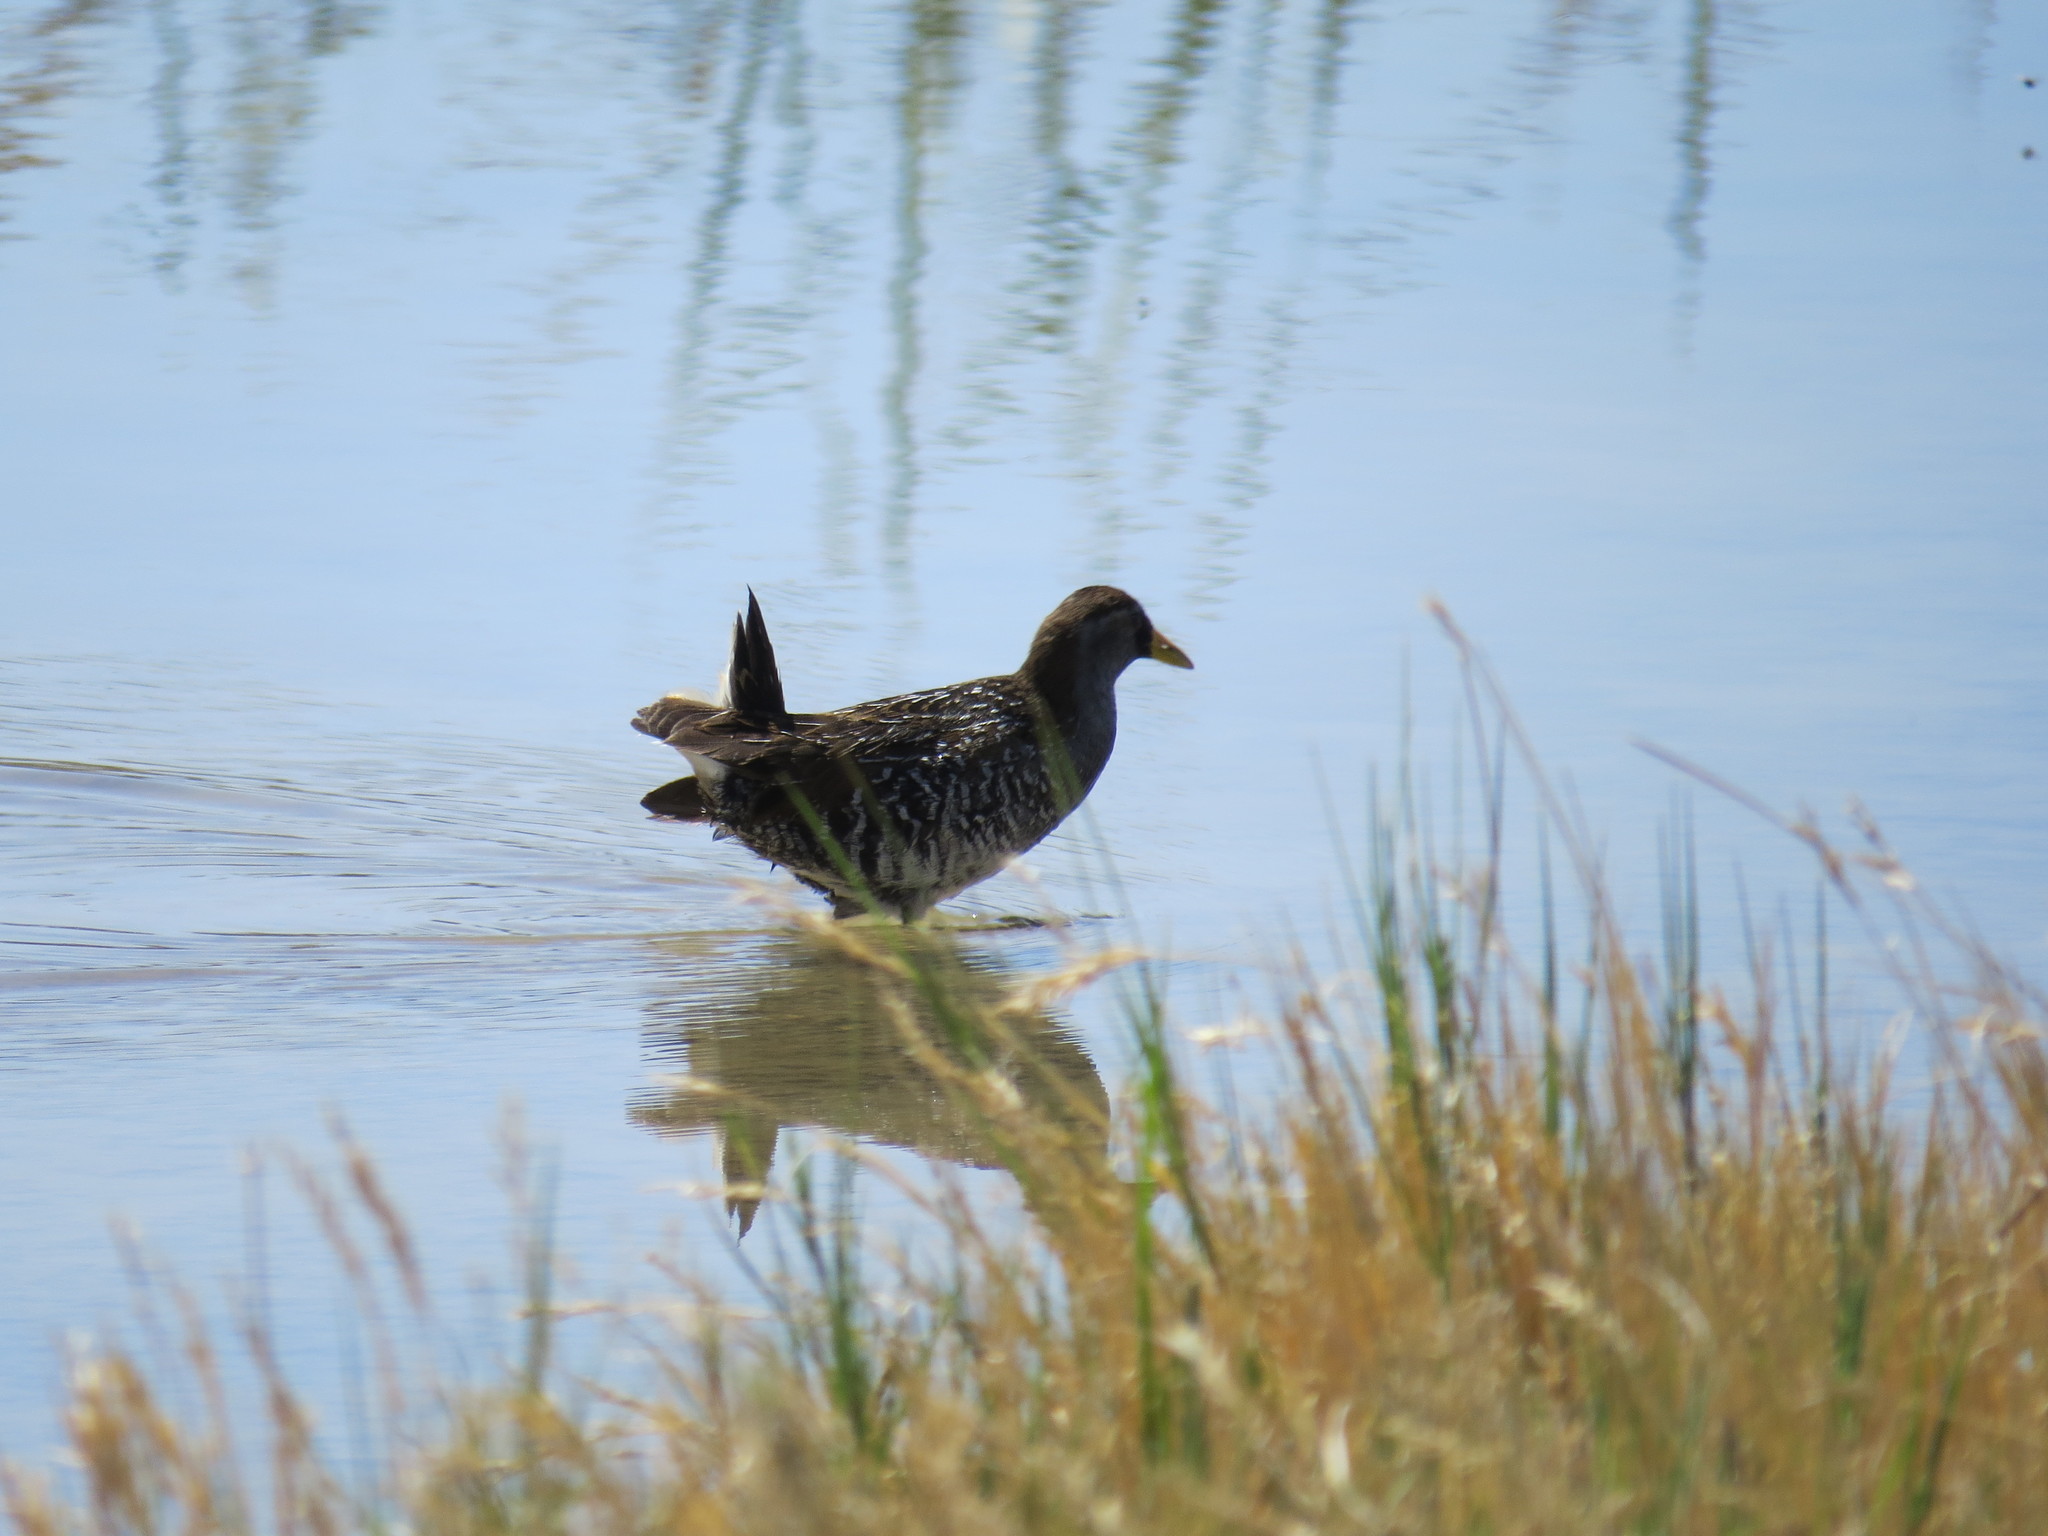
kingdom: Animalia
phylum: Chordata
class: Aves
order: Gruiformes
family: Rallidae
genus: Porzana
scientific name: Porzana carolina
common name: Sora
